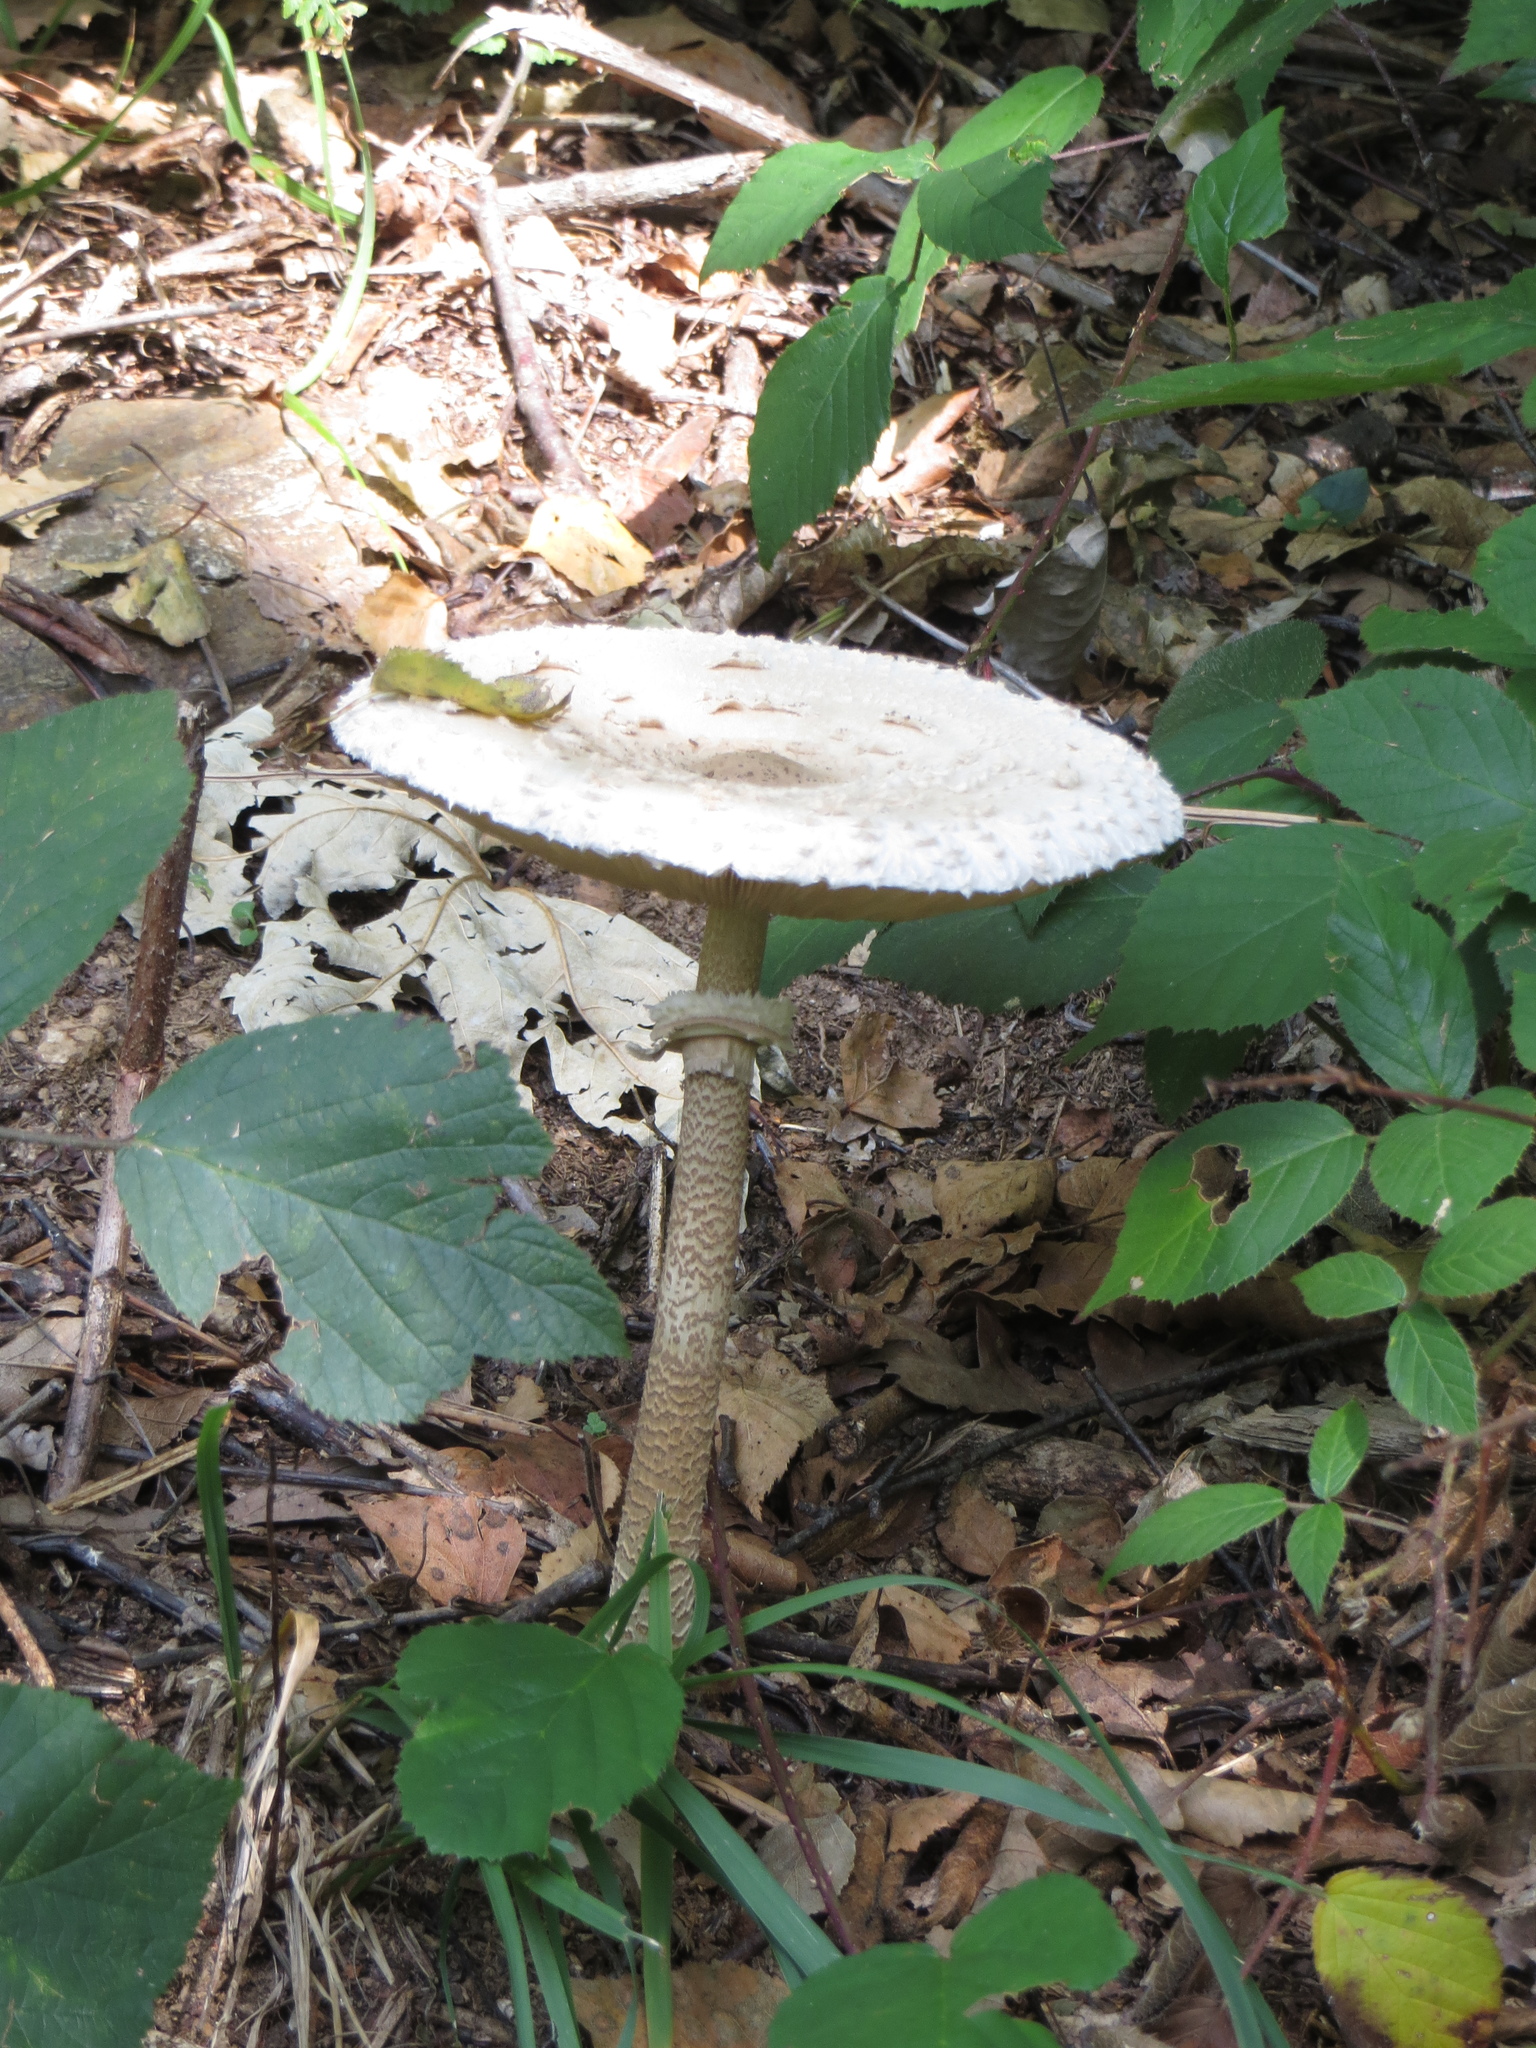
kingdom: Fungi
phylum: Basidiomycota
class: Agaricomycetes
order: Agaricales
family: Agaricaceae
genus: Macrolepiota
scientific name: Macrolepiota procera
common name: Parasol
